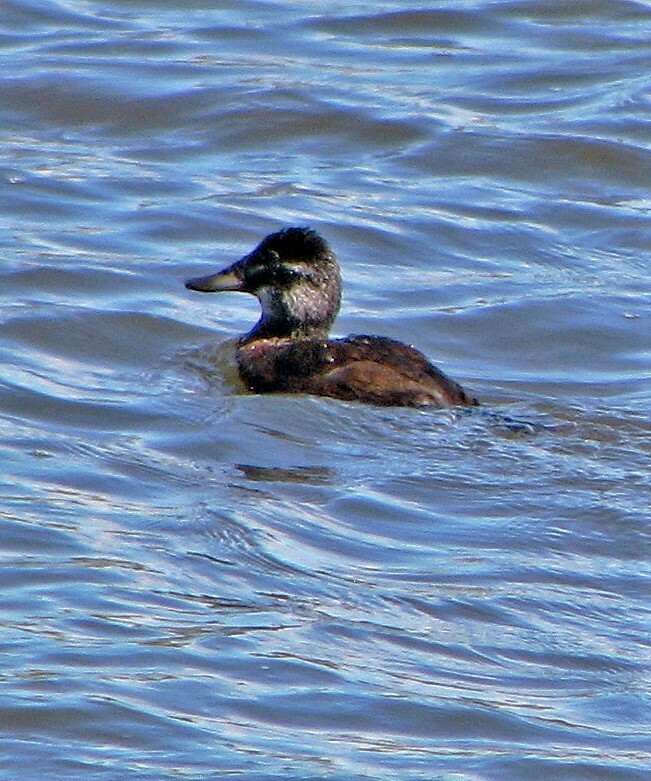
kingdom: Animalia
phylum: Chordata
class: Aves
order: Anseriformes
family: Anatidae
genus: Oxyura
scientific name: Oxyura ferruginea
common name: Andean duck
